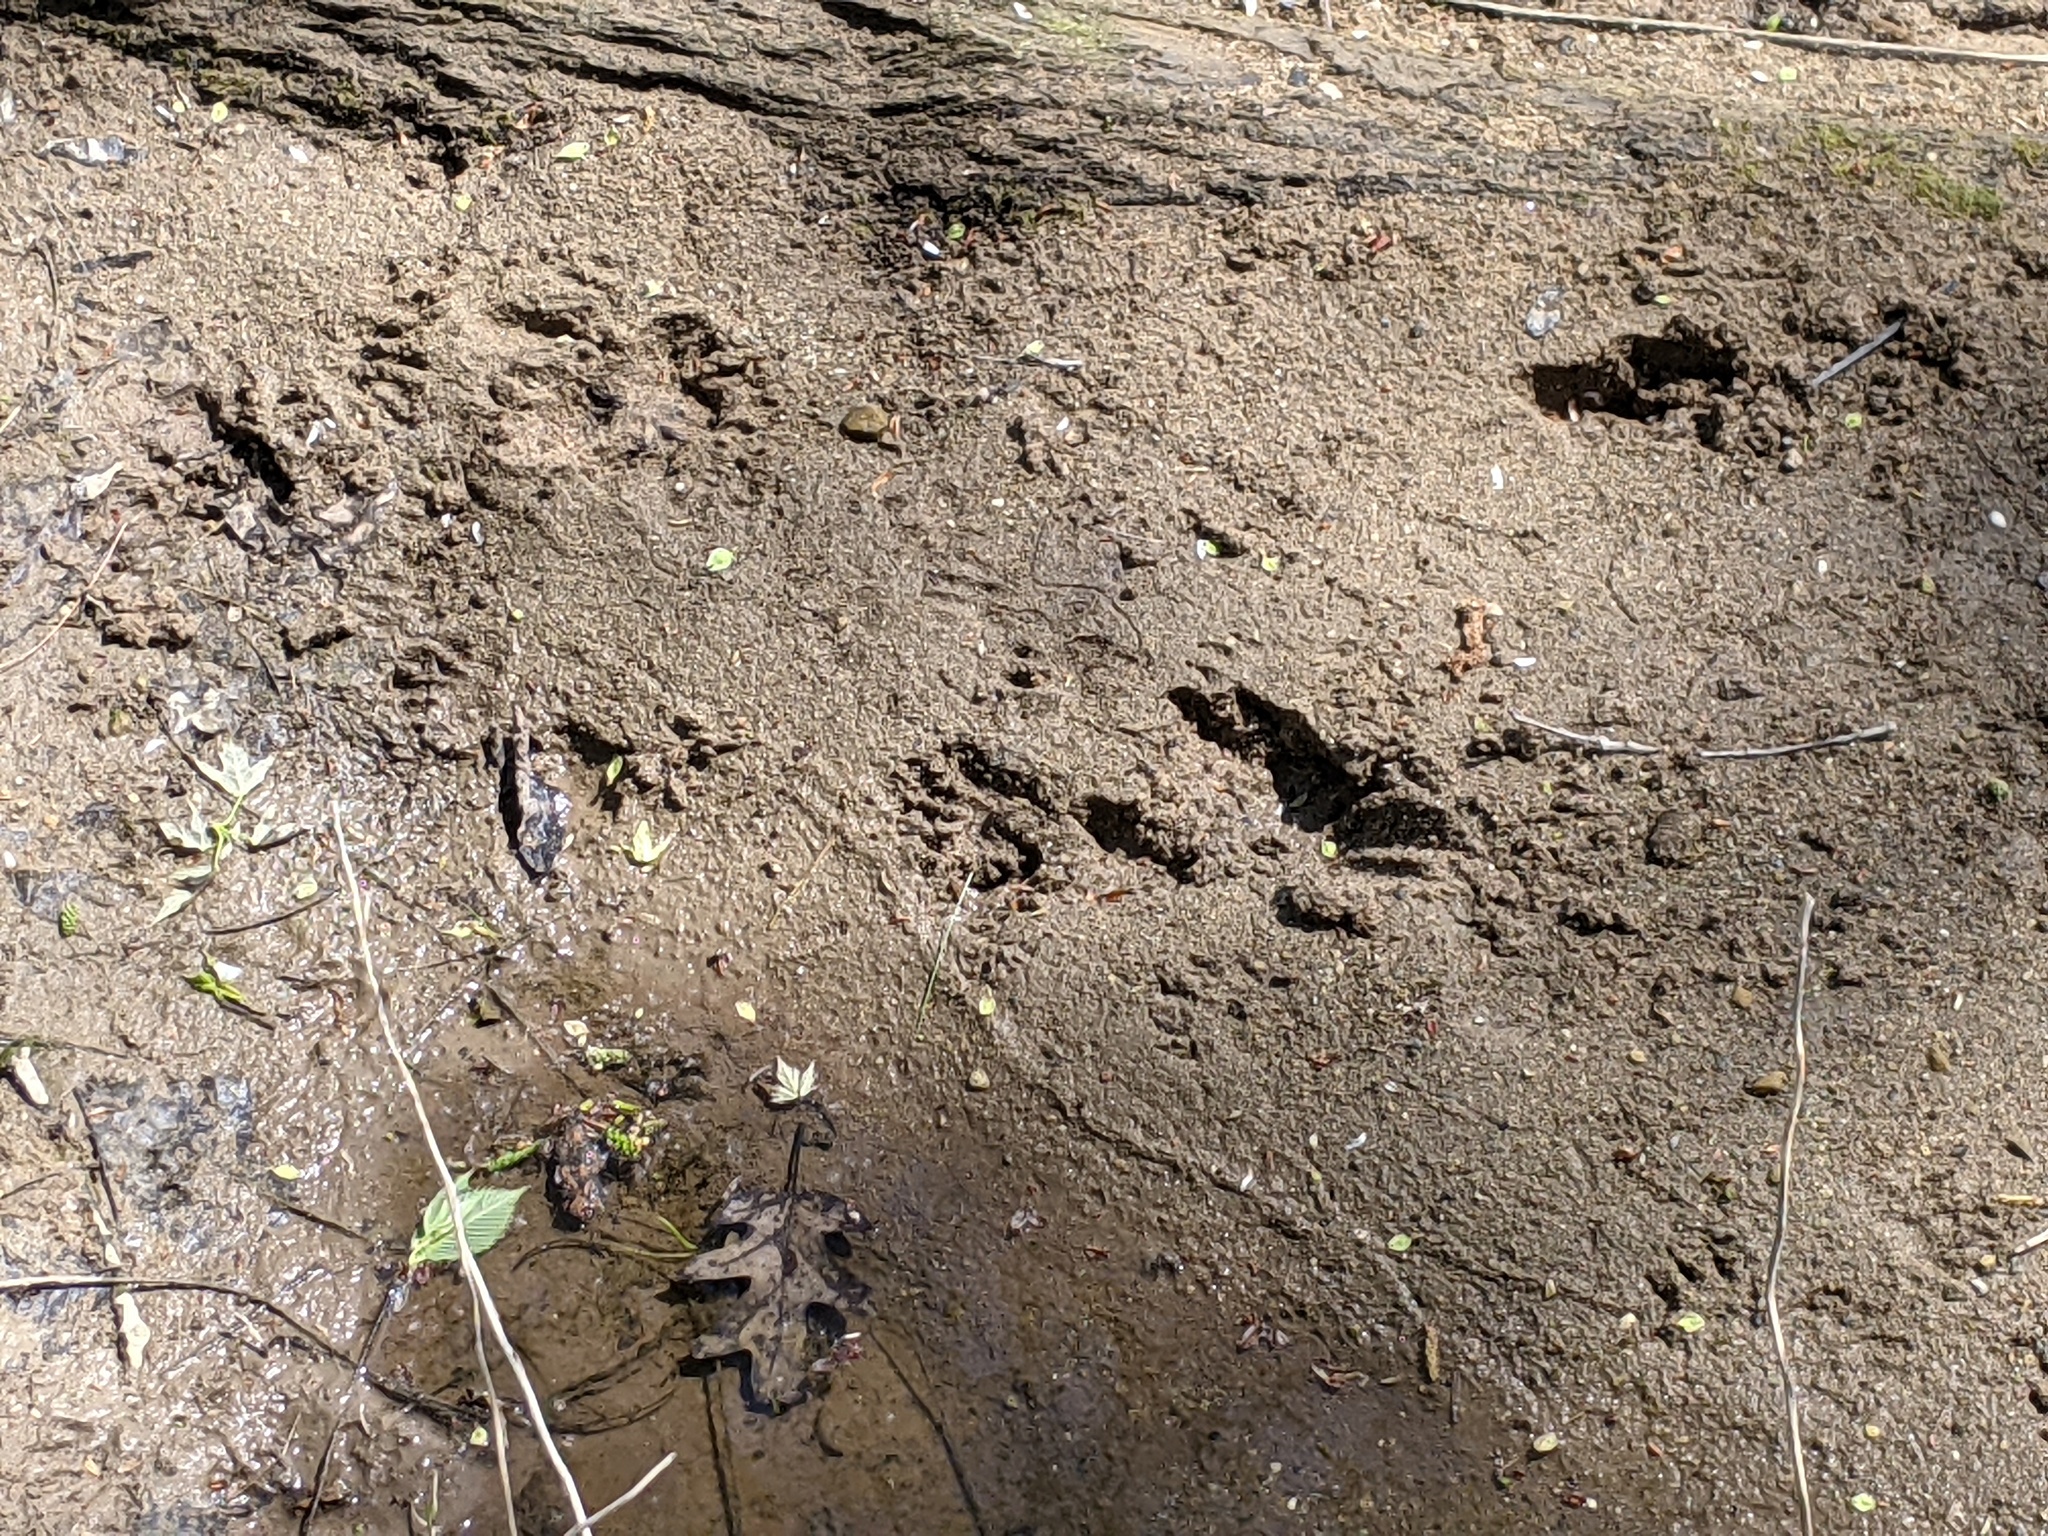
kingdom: Animalia
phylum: Chordata
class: Mammalia
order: Carnivora
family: Procyonidae
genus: Procyon
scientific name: Procyon lotor
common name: Raccoon
